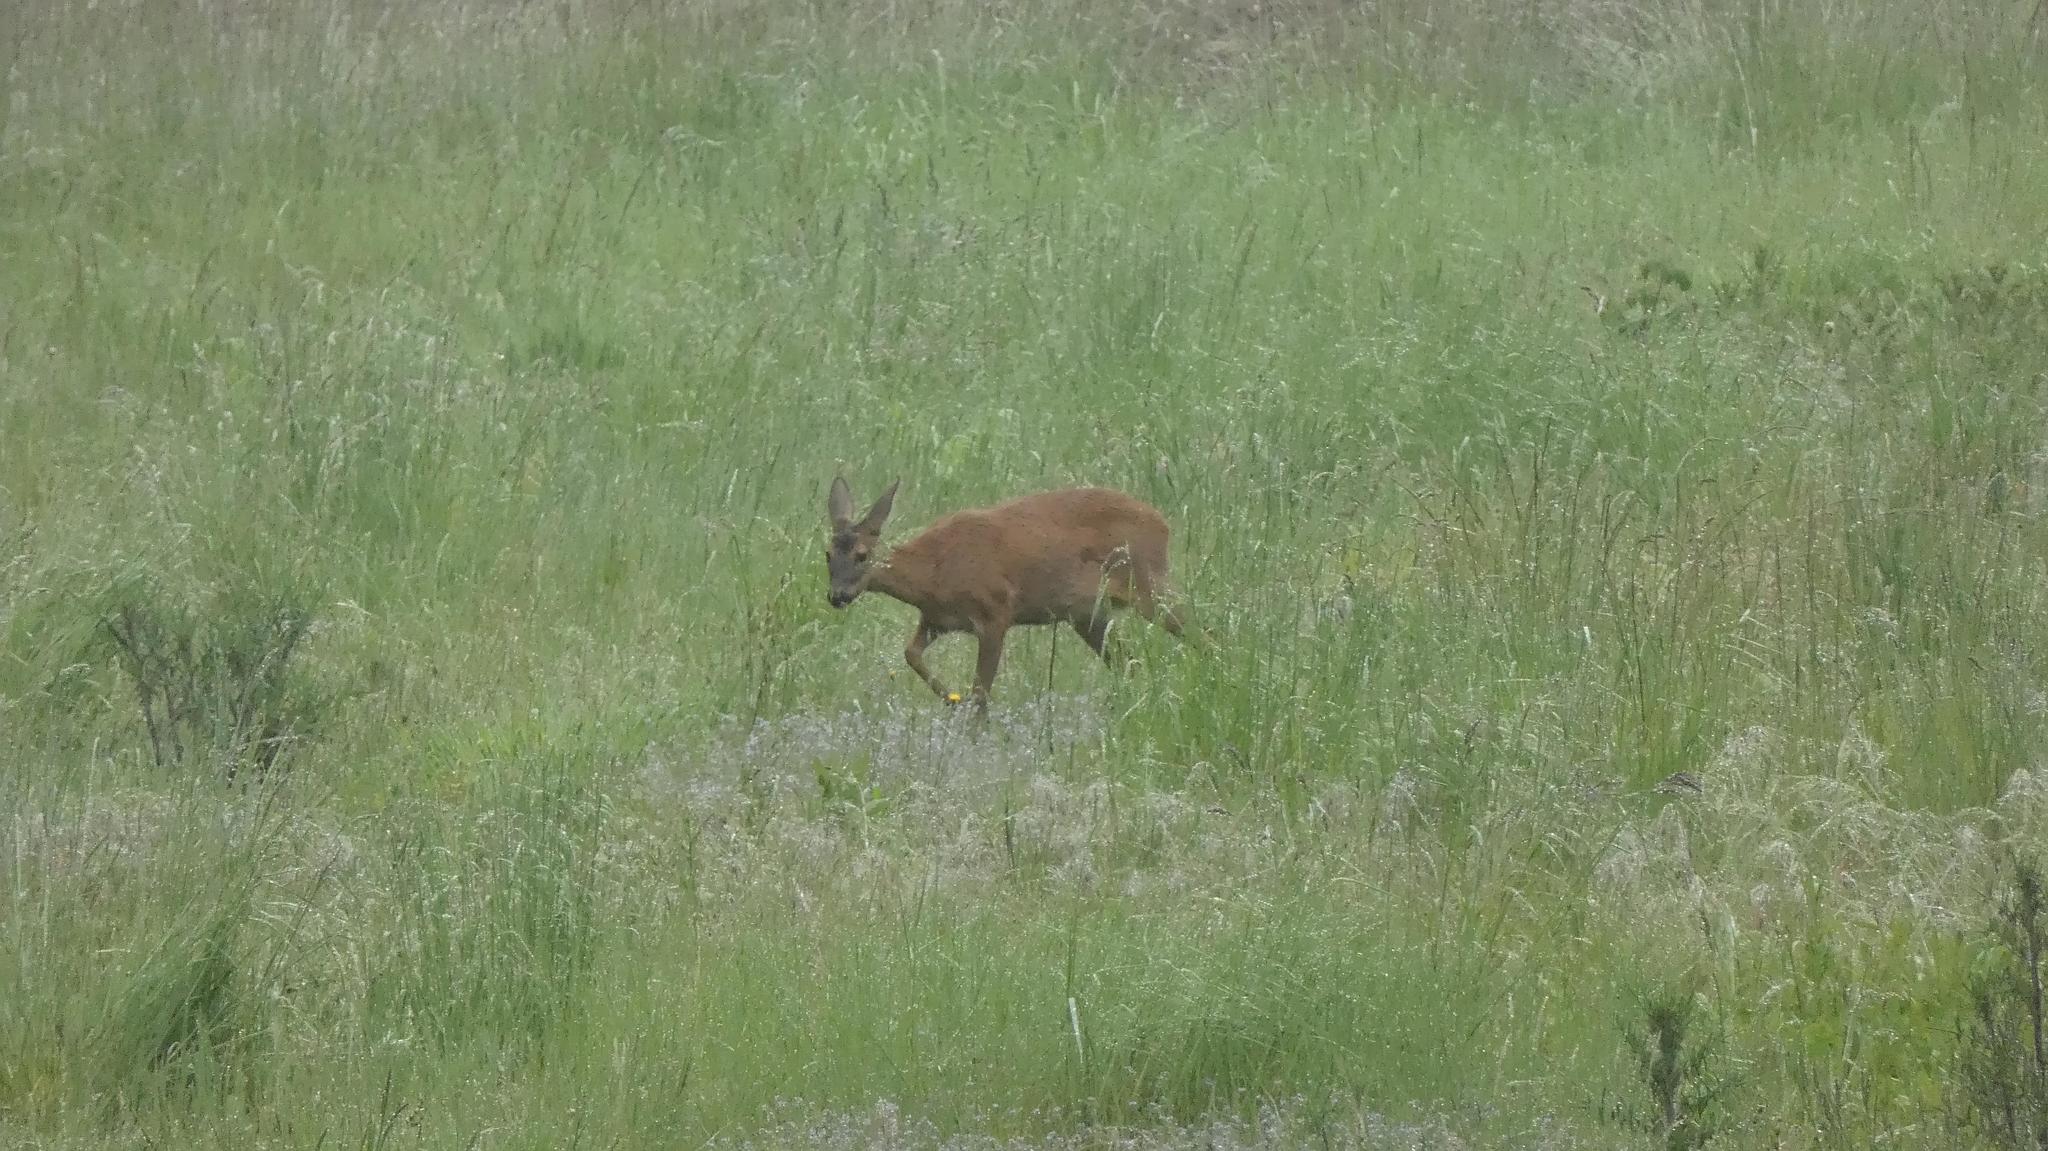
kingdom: Animalia
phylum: Chordata
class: Mammalia
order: Artiodactyla
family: Cervidae
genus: Capreolus
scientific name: Capreolus capreolus
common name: Western roe deer
